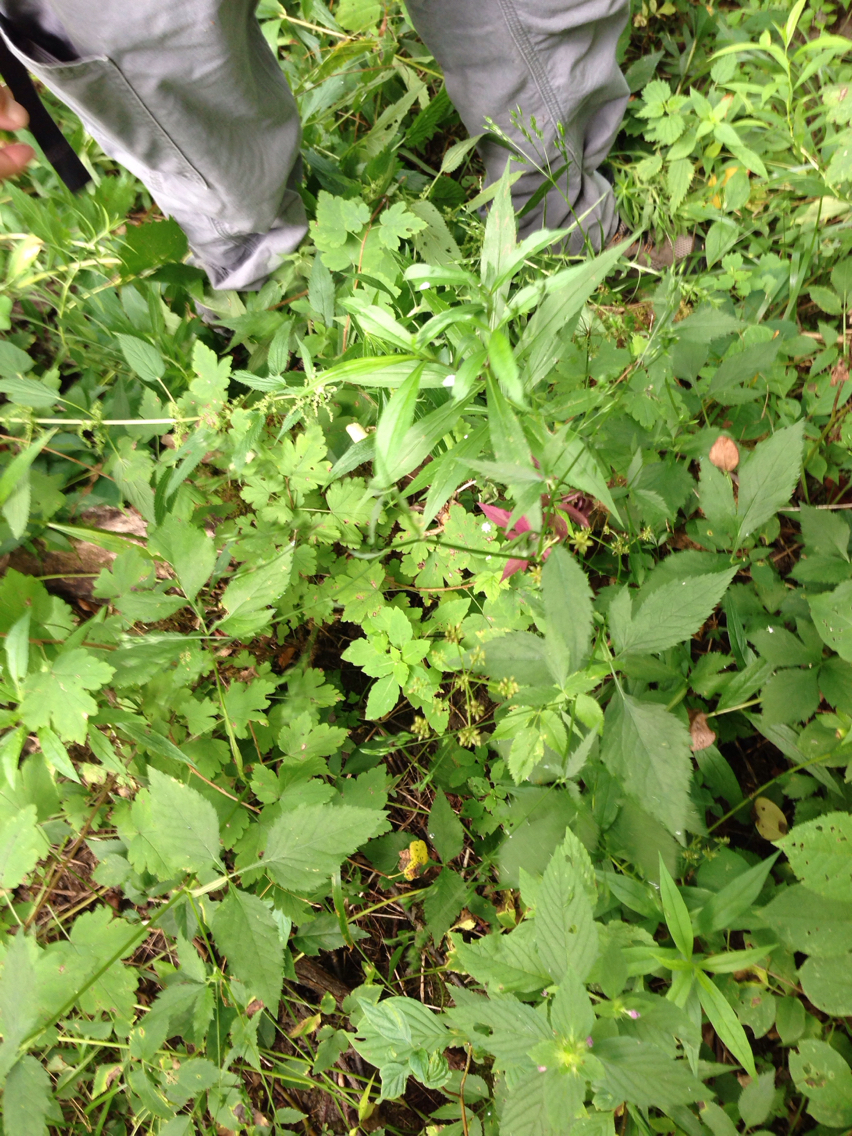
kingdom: Plantae
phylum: Tracheophyta
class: Magnoliopsida
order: Apiales
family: Apiaceae
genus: Cryptotaenia
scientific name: Cryptotaenia canadensis
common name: Honewort
